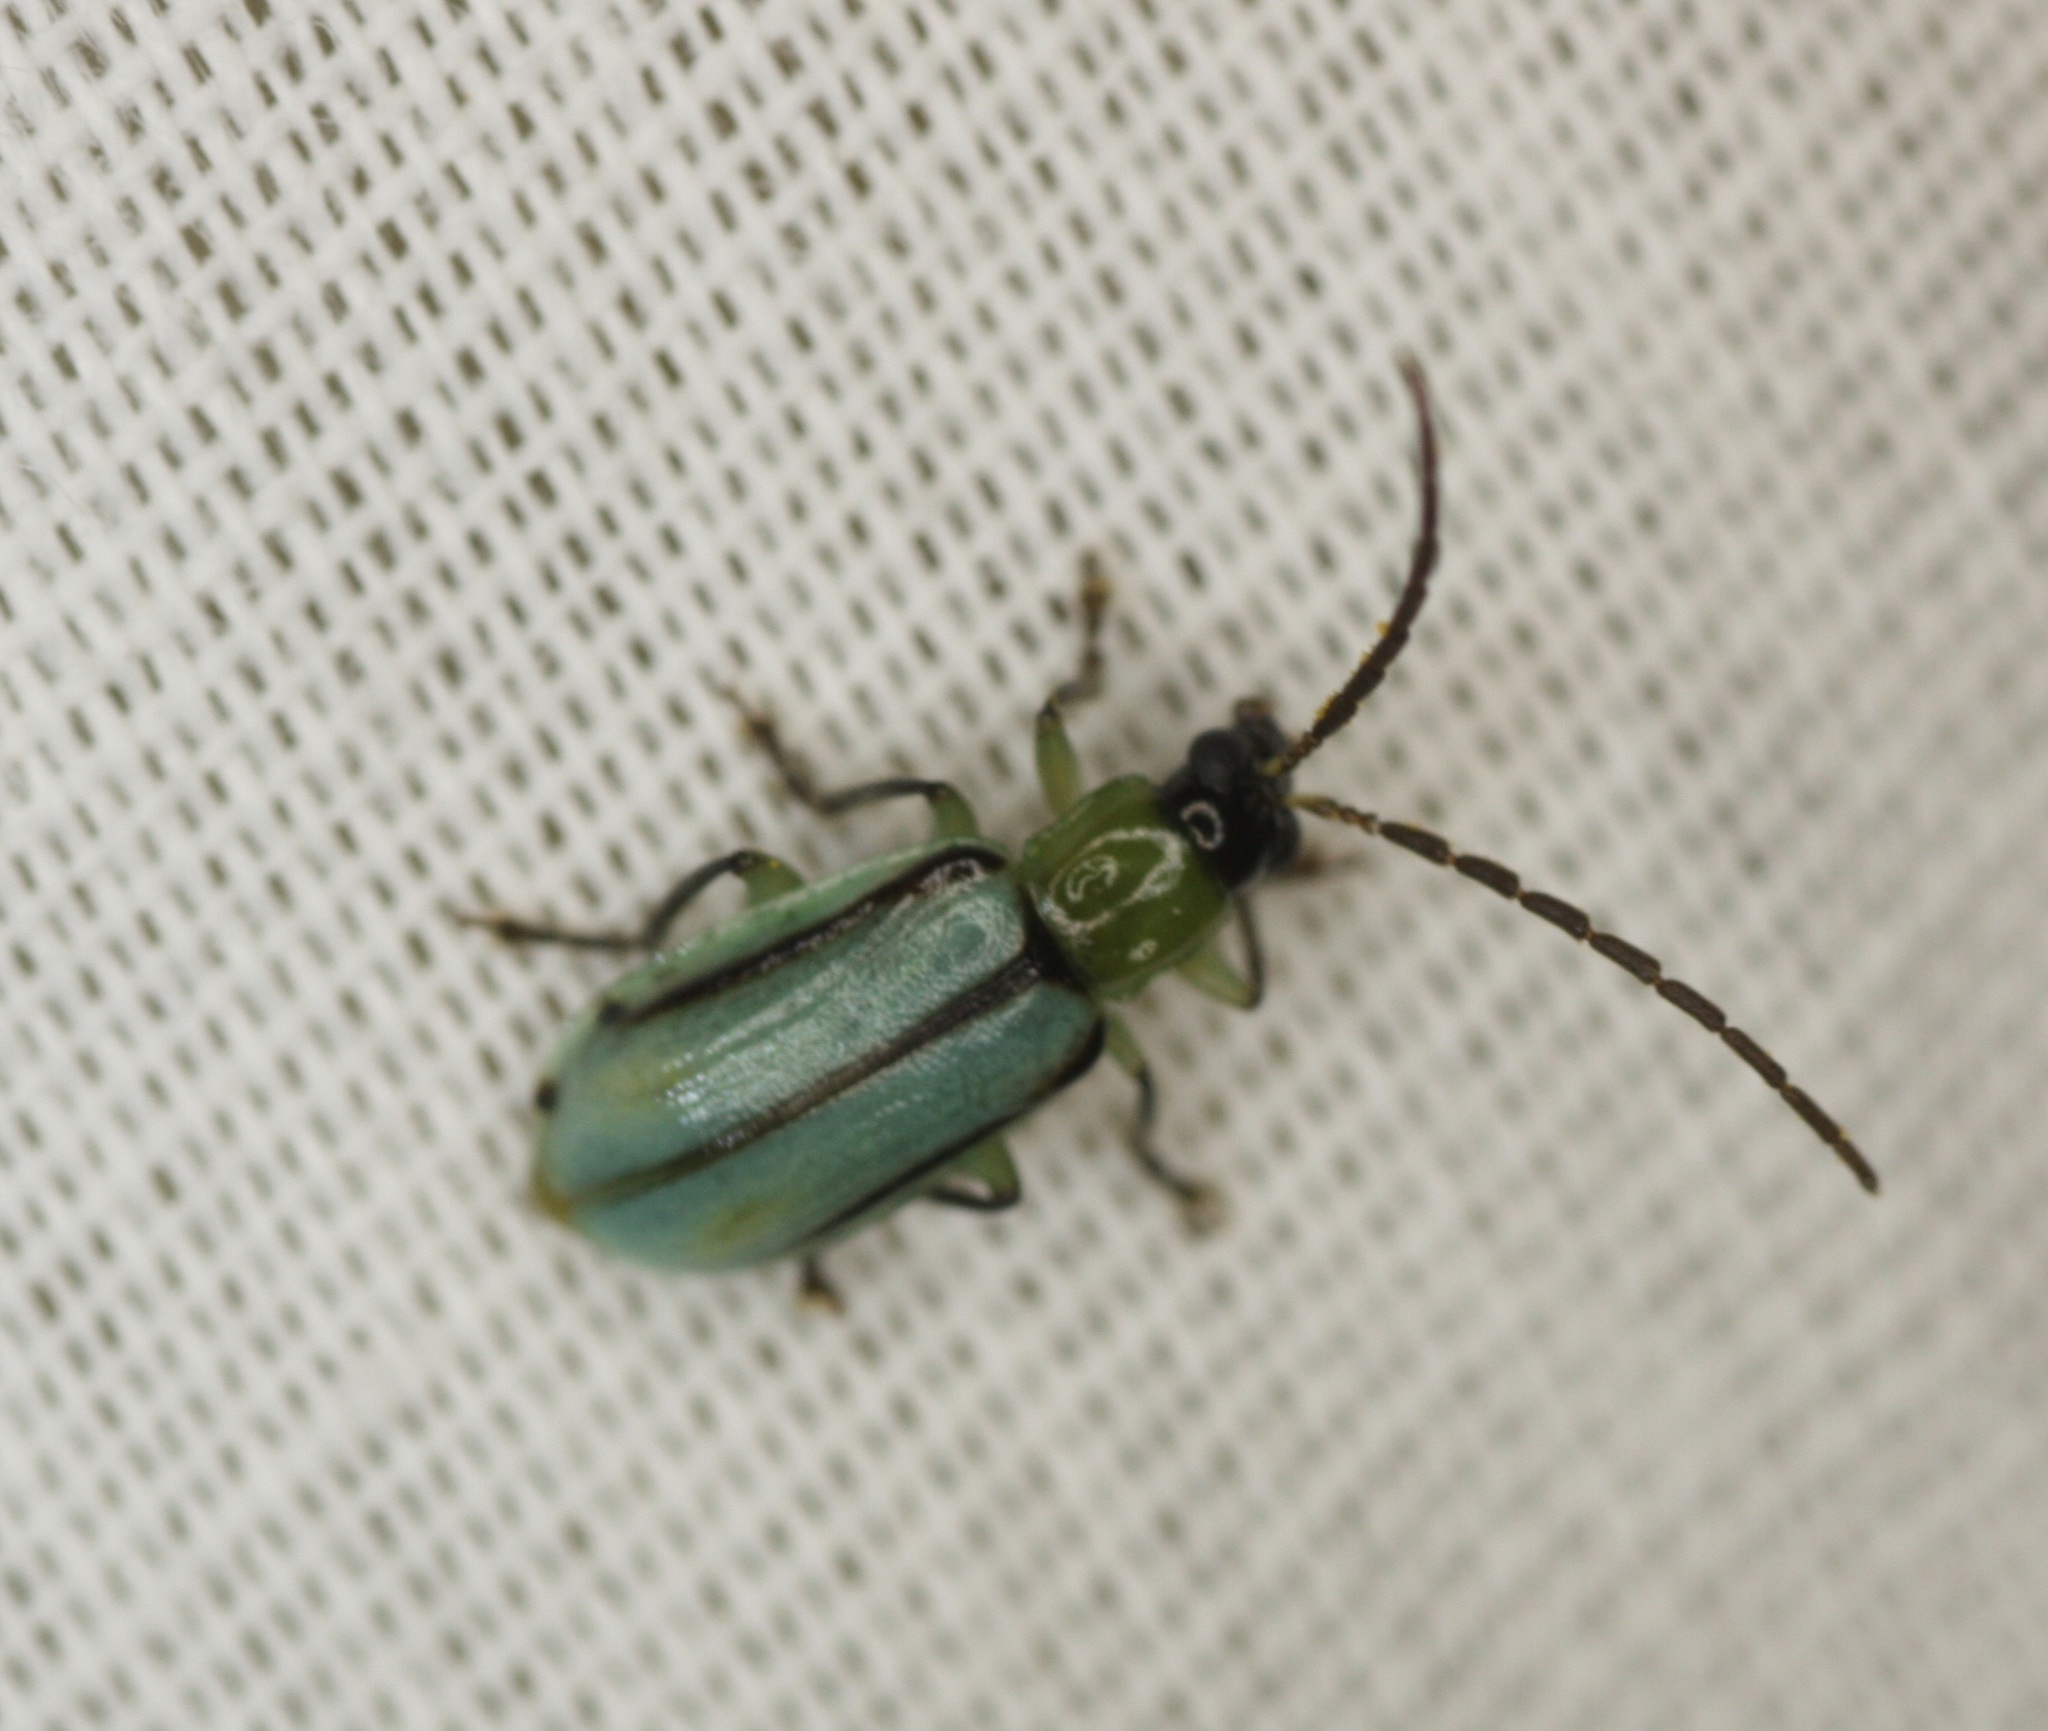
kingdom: Animalia
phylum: Arthropoda
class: Insecta
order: Coleoptera
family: Chrysomelidae
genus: Diabrotica
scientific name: Diabrotica longicornis
